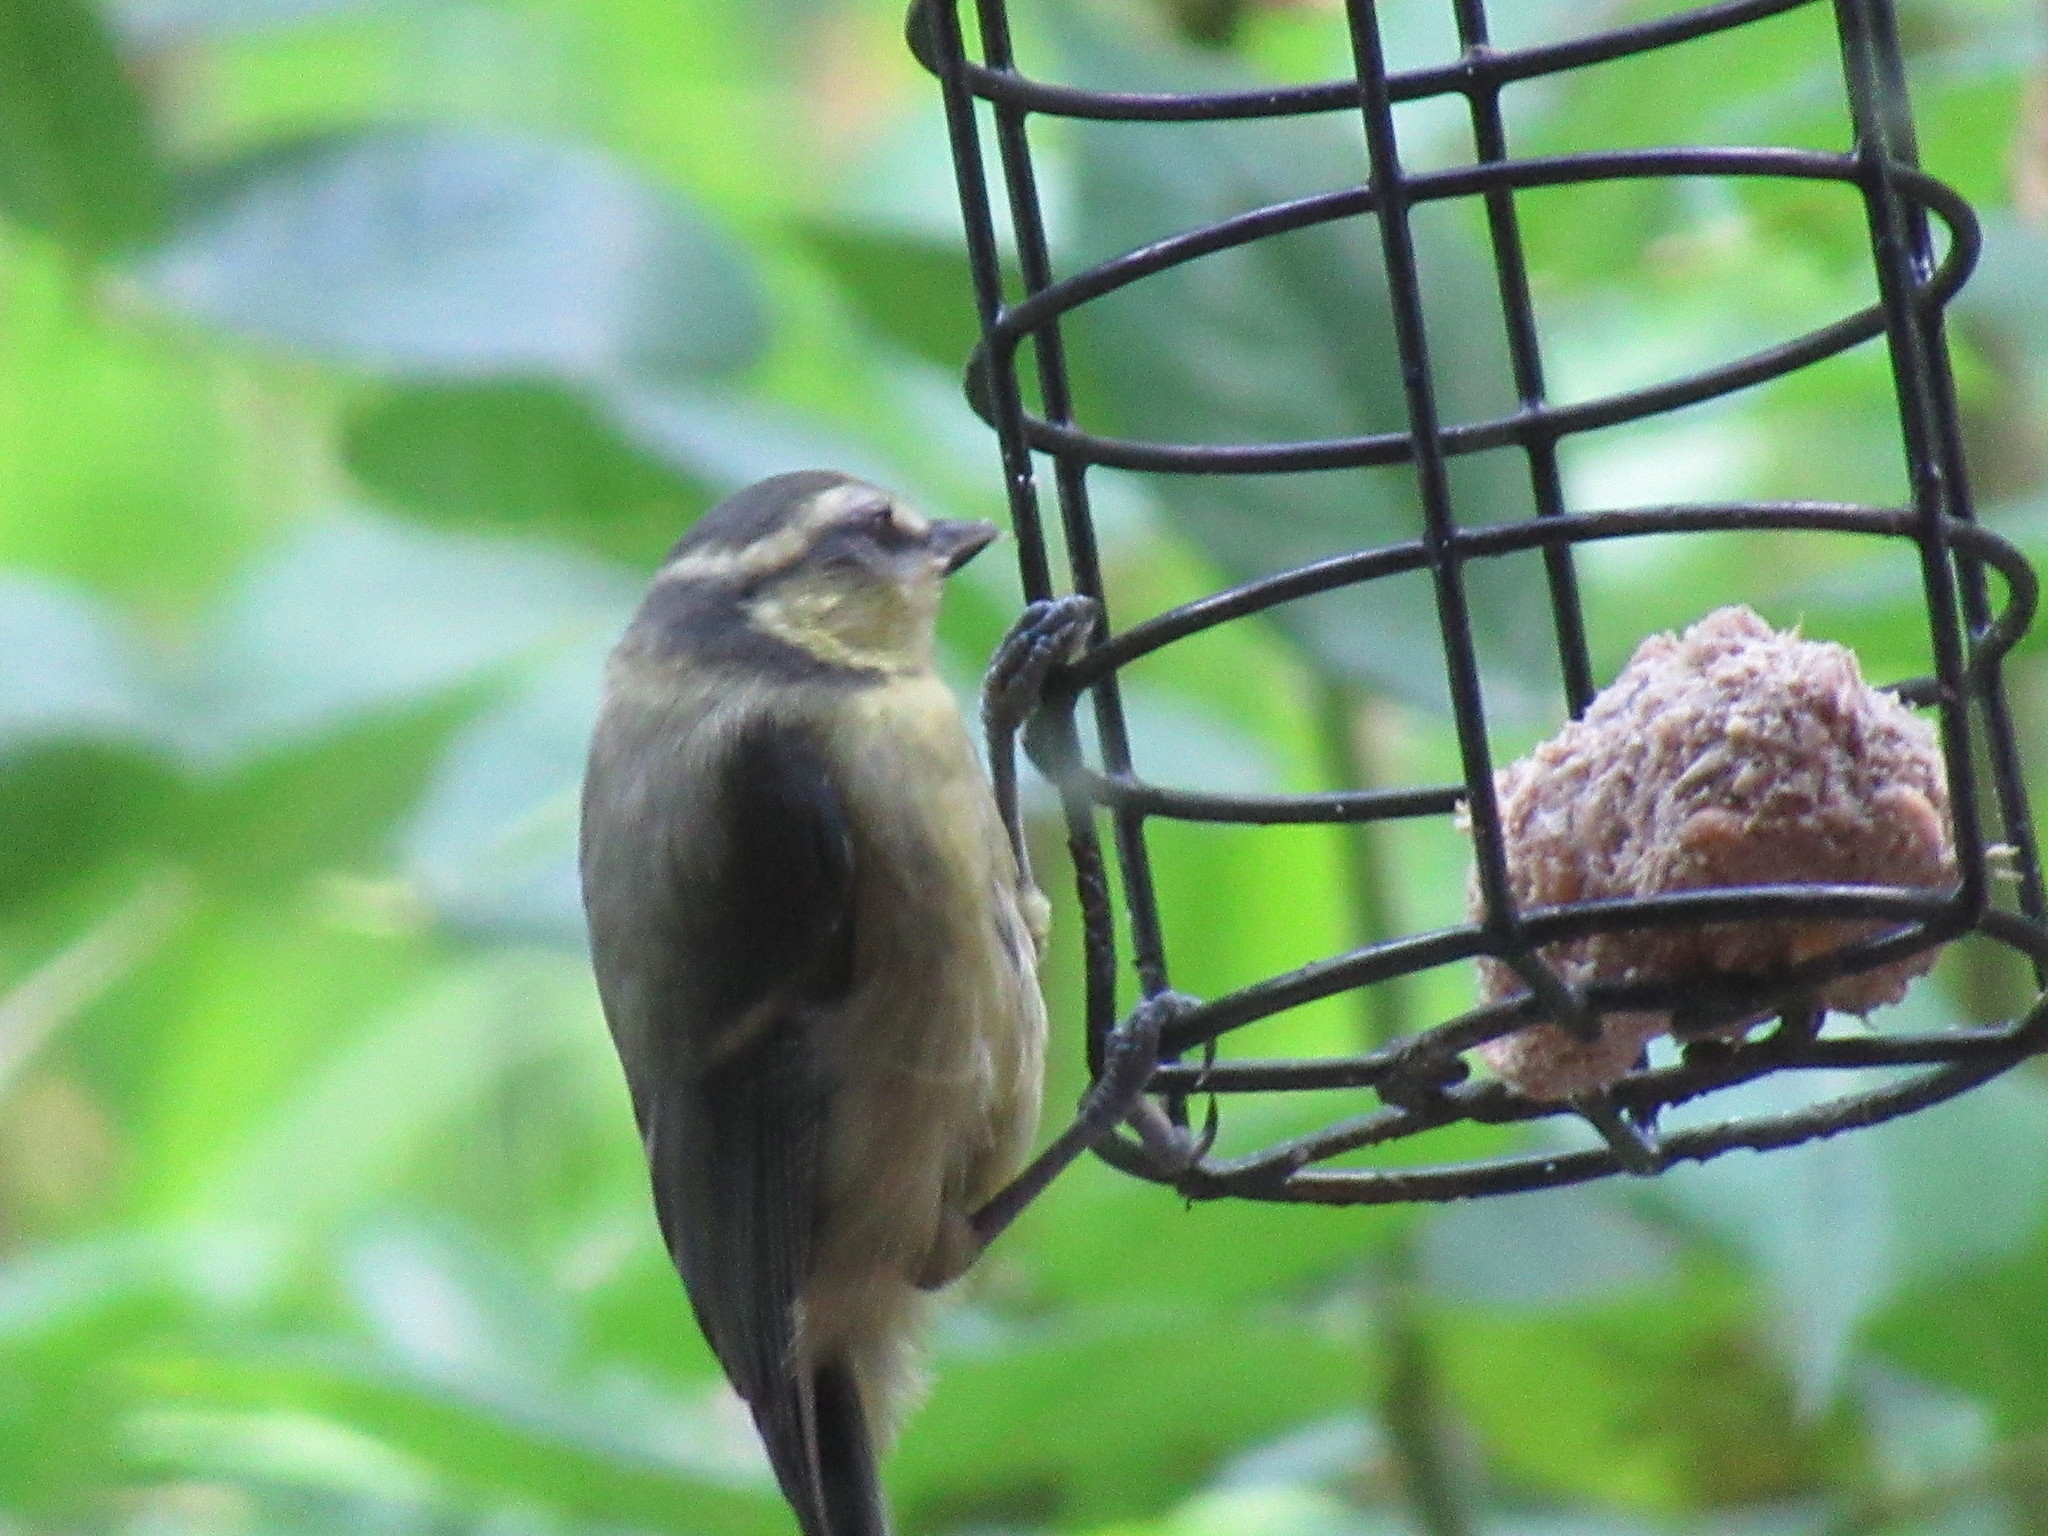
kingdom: Animalia
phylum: Chordata
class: Aves
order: Passeriformes
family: Paridae
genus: Cyanistes
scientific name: Cyanistes caeruleus
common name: Eurasian blue tit
